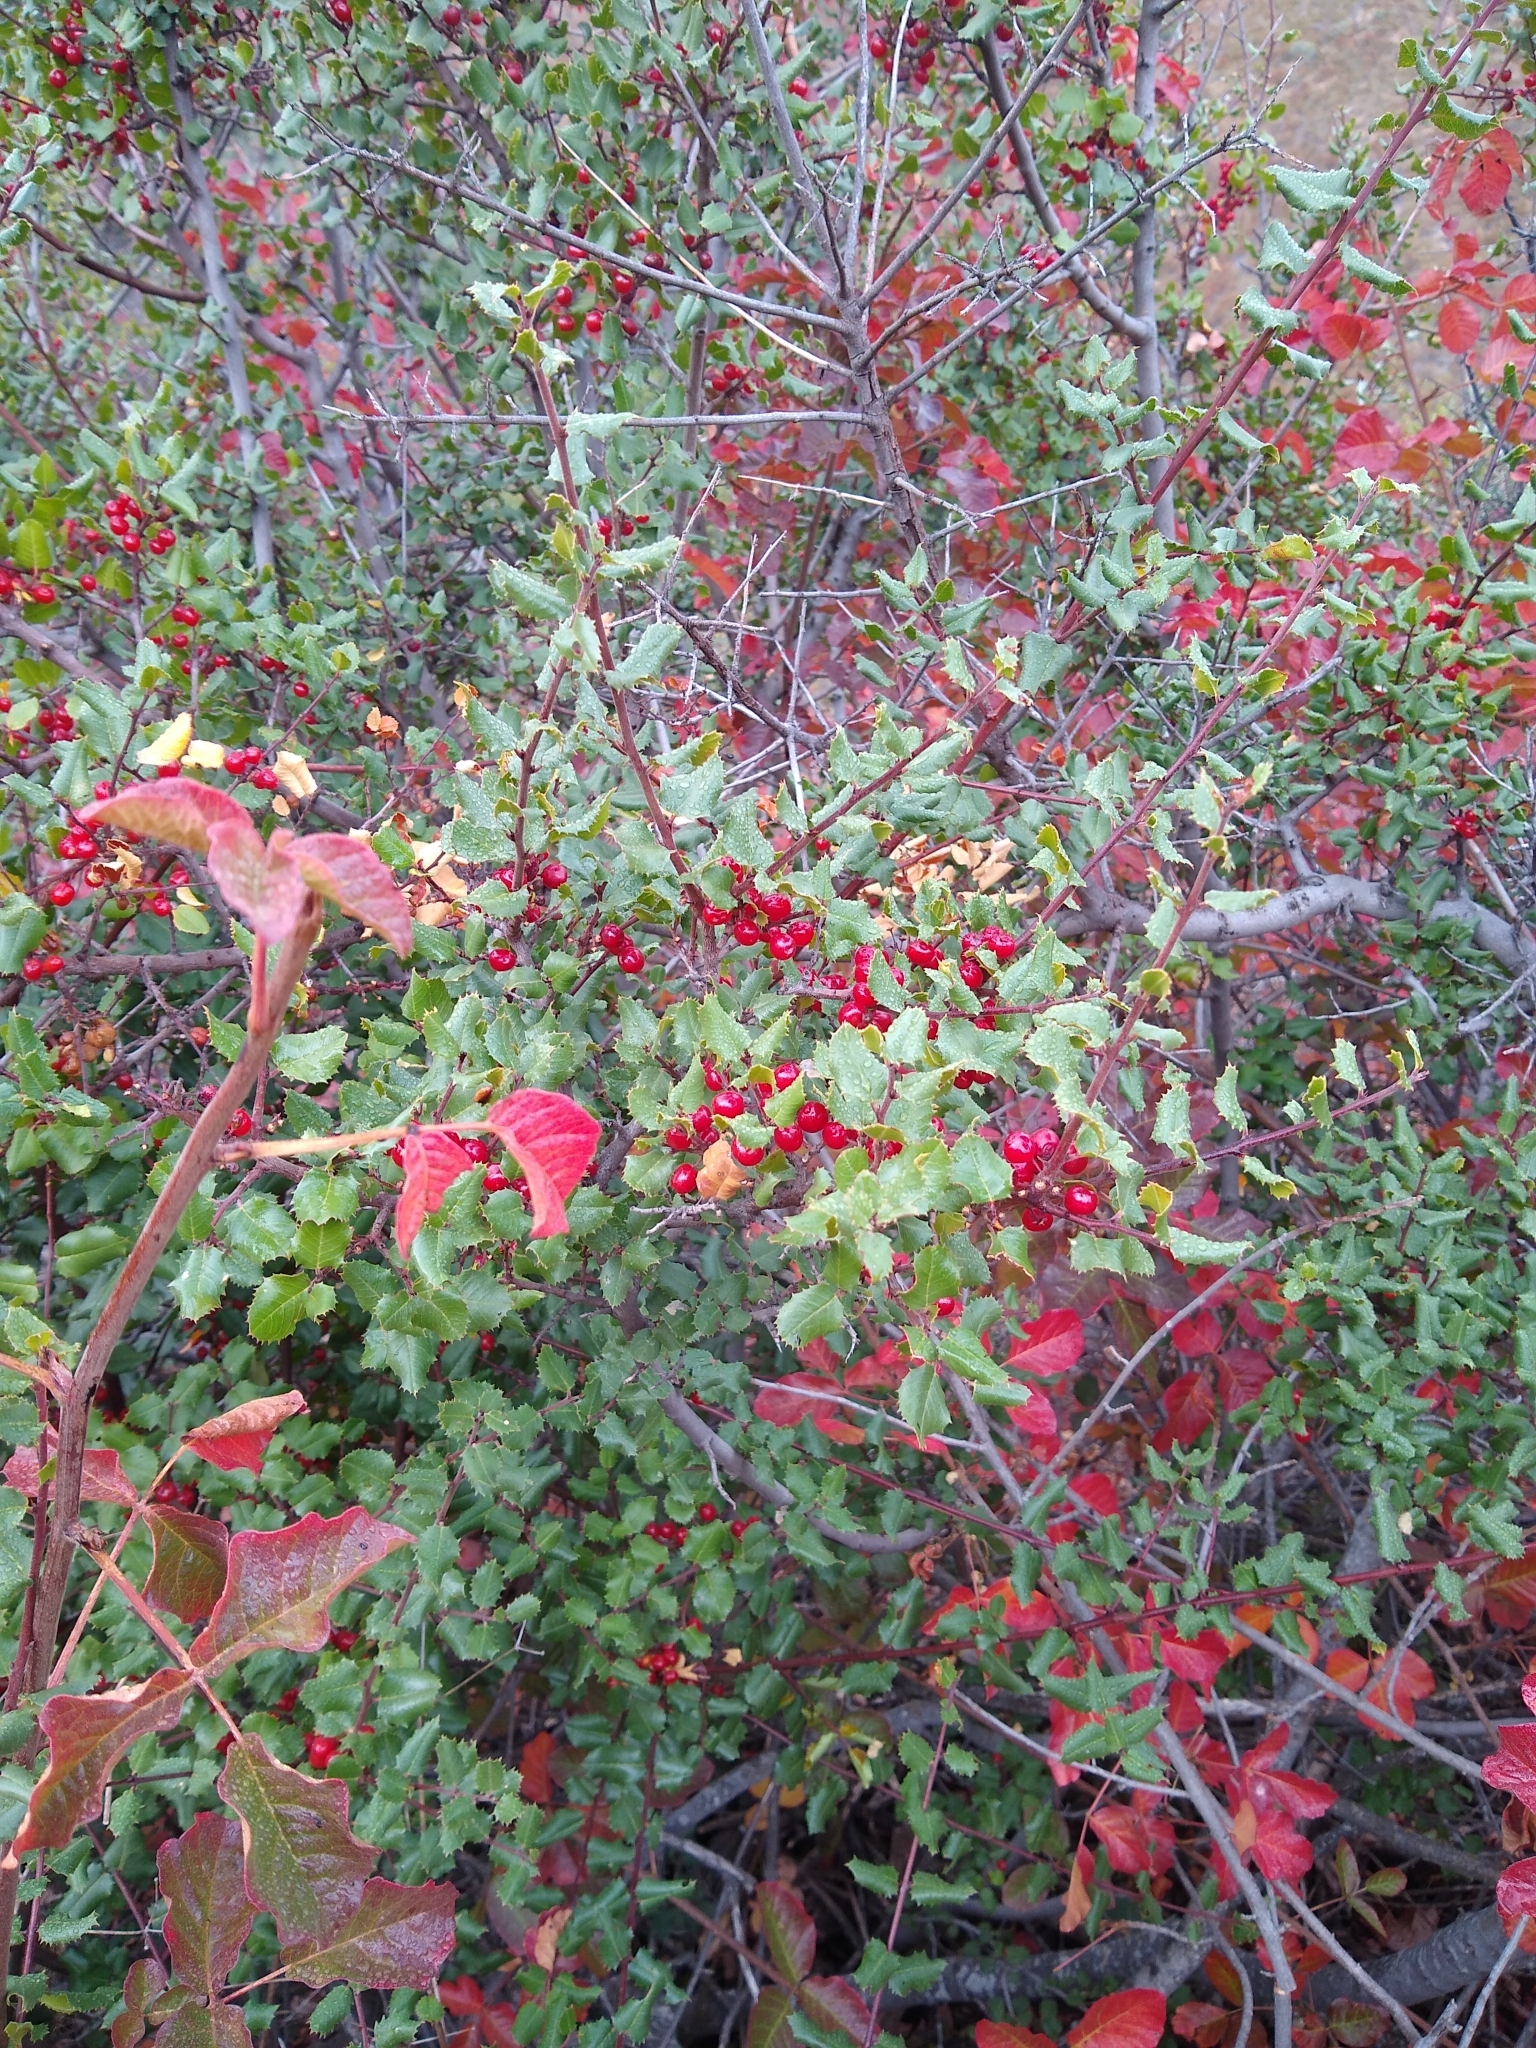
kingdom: Plantae
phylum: Tracheophyta
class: Magnoliopsida
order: Rosales
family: Rhamnaceae
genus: Endotropis
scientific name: Endotropis crocea
